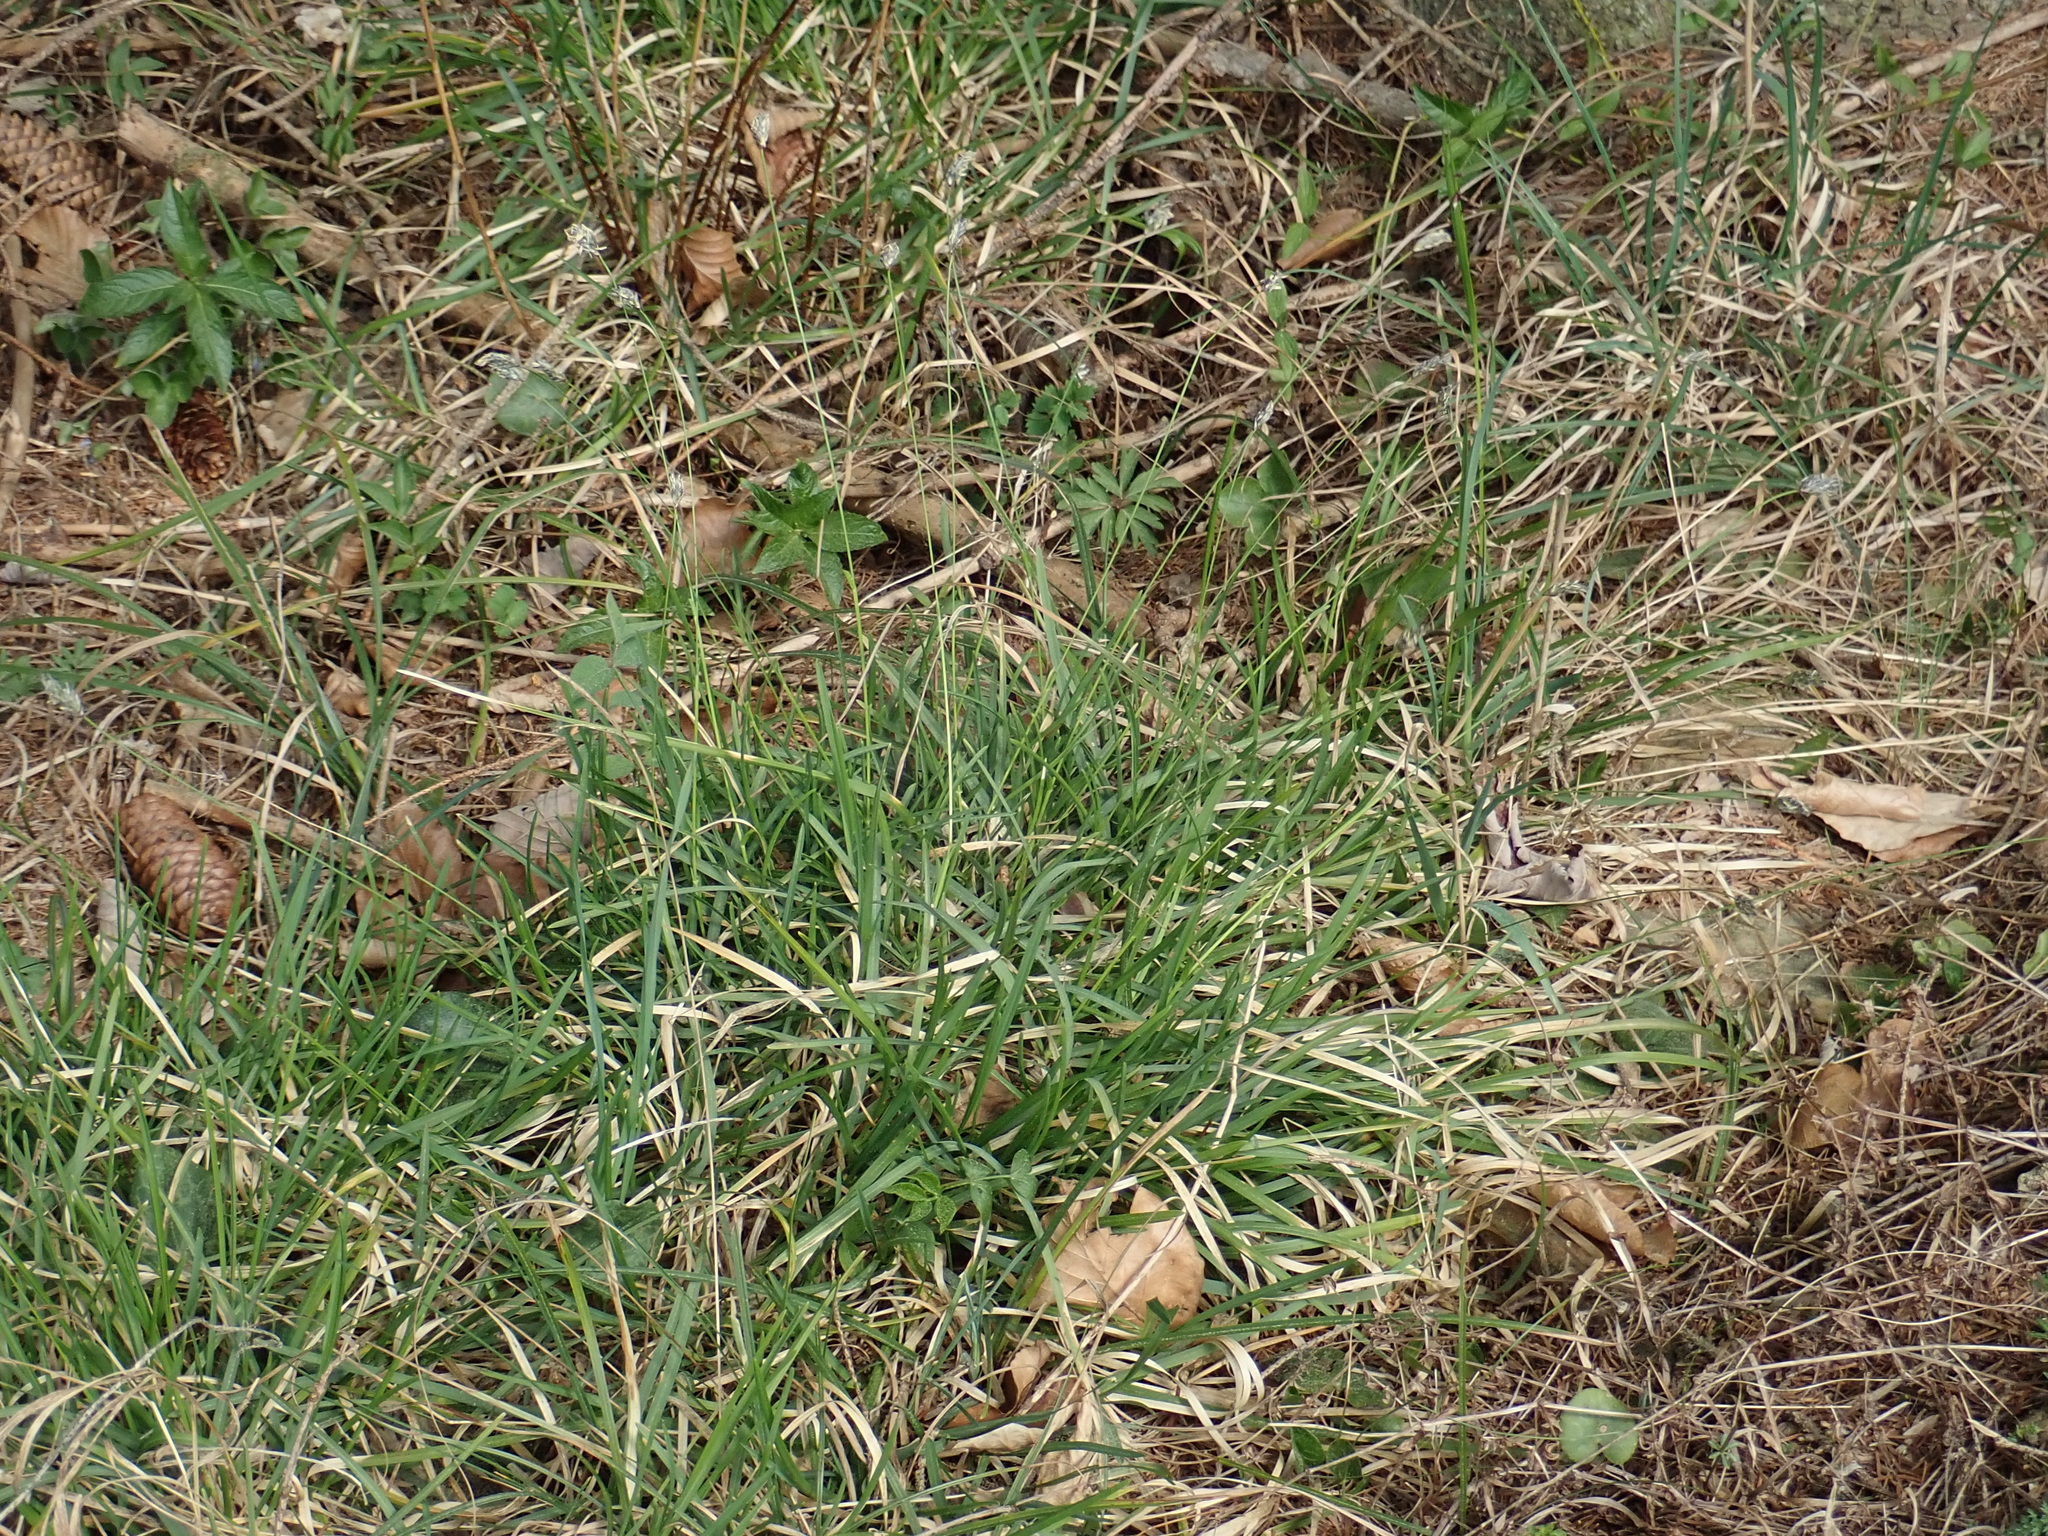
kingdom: Plantae
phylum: Tracheophyta
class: Liliopsida
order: Poales
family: Poaceae
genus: Sesleria
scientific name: Sesleria caerulea
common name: Blue moor-grass
